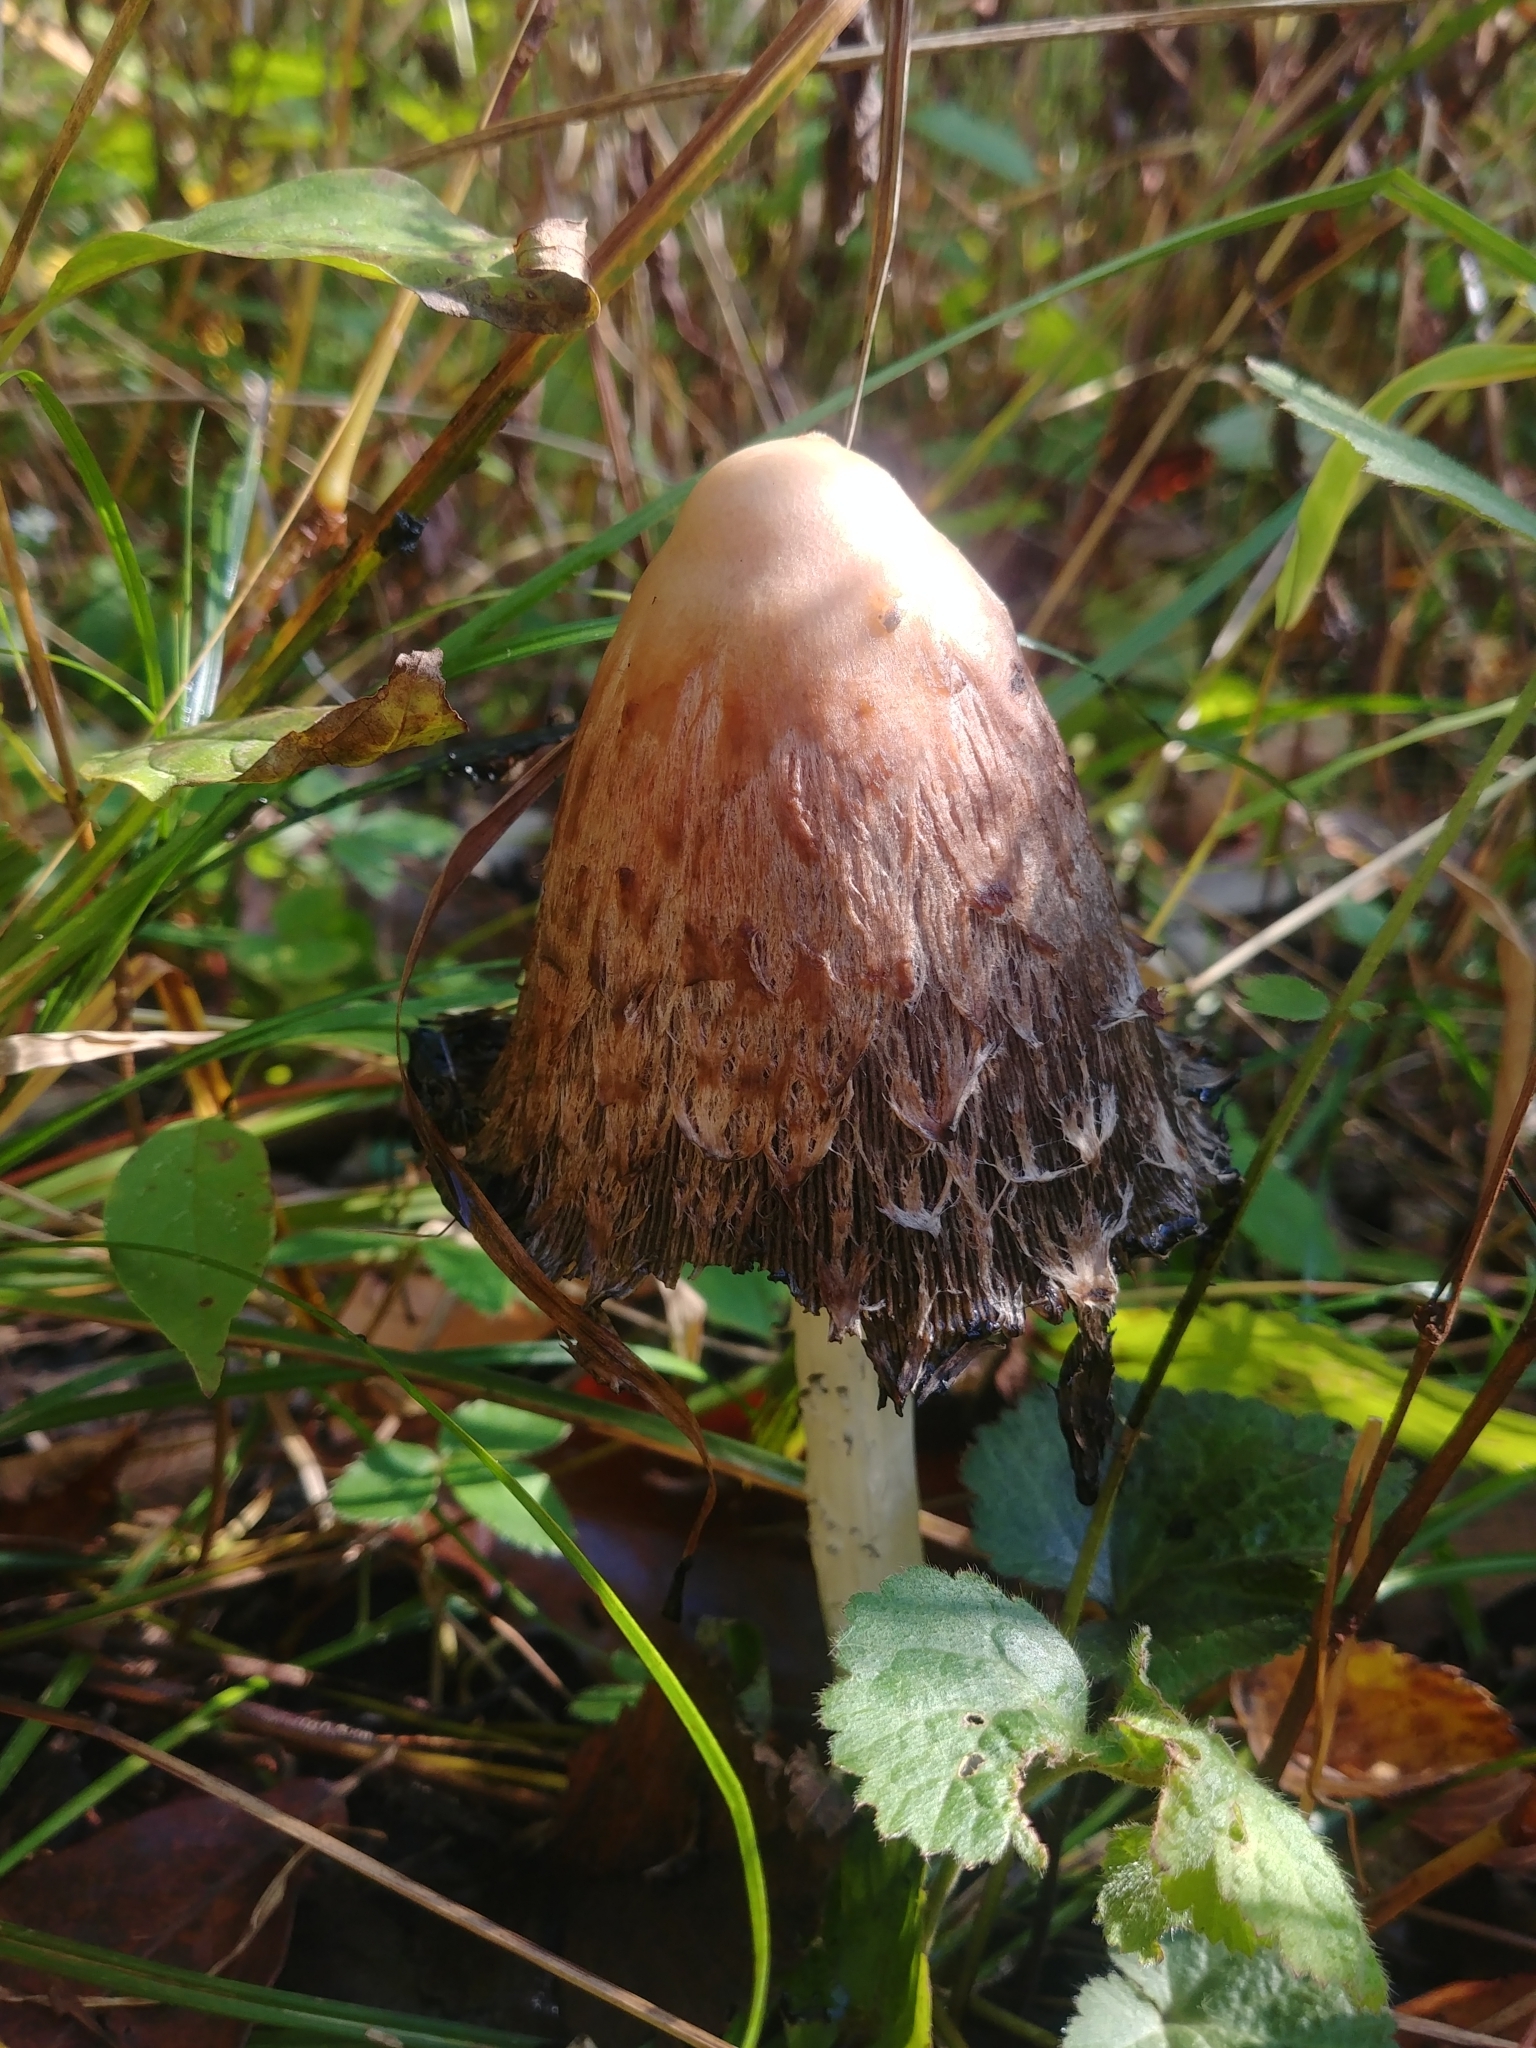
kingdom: Fungi
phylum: Basidiomycota
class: Agaricomycetes
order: Agaricales
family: Agaricaceae
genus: Coprinus
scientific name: Coprinus comatus
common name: Lawyer's wig
